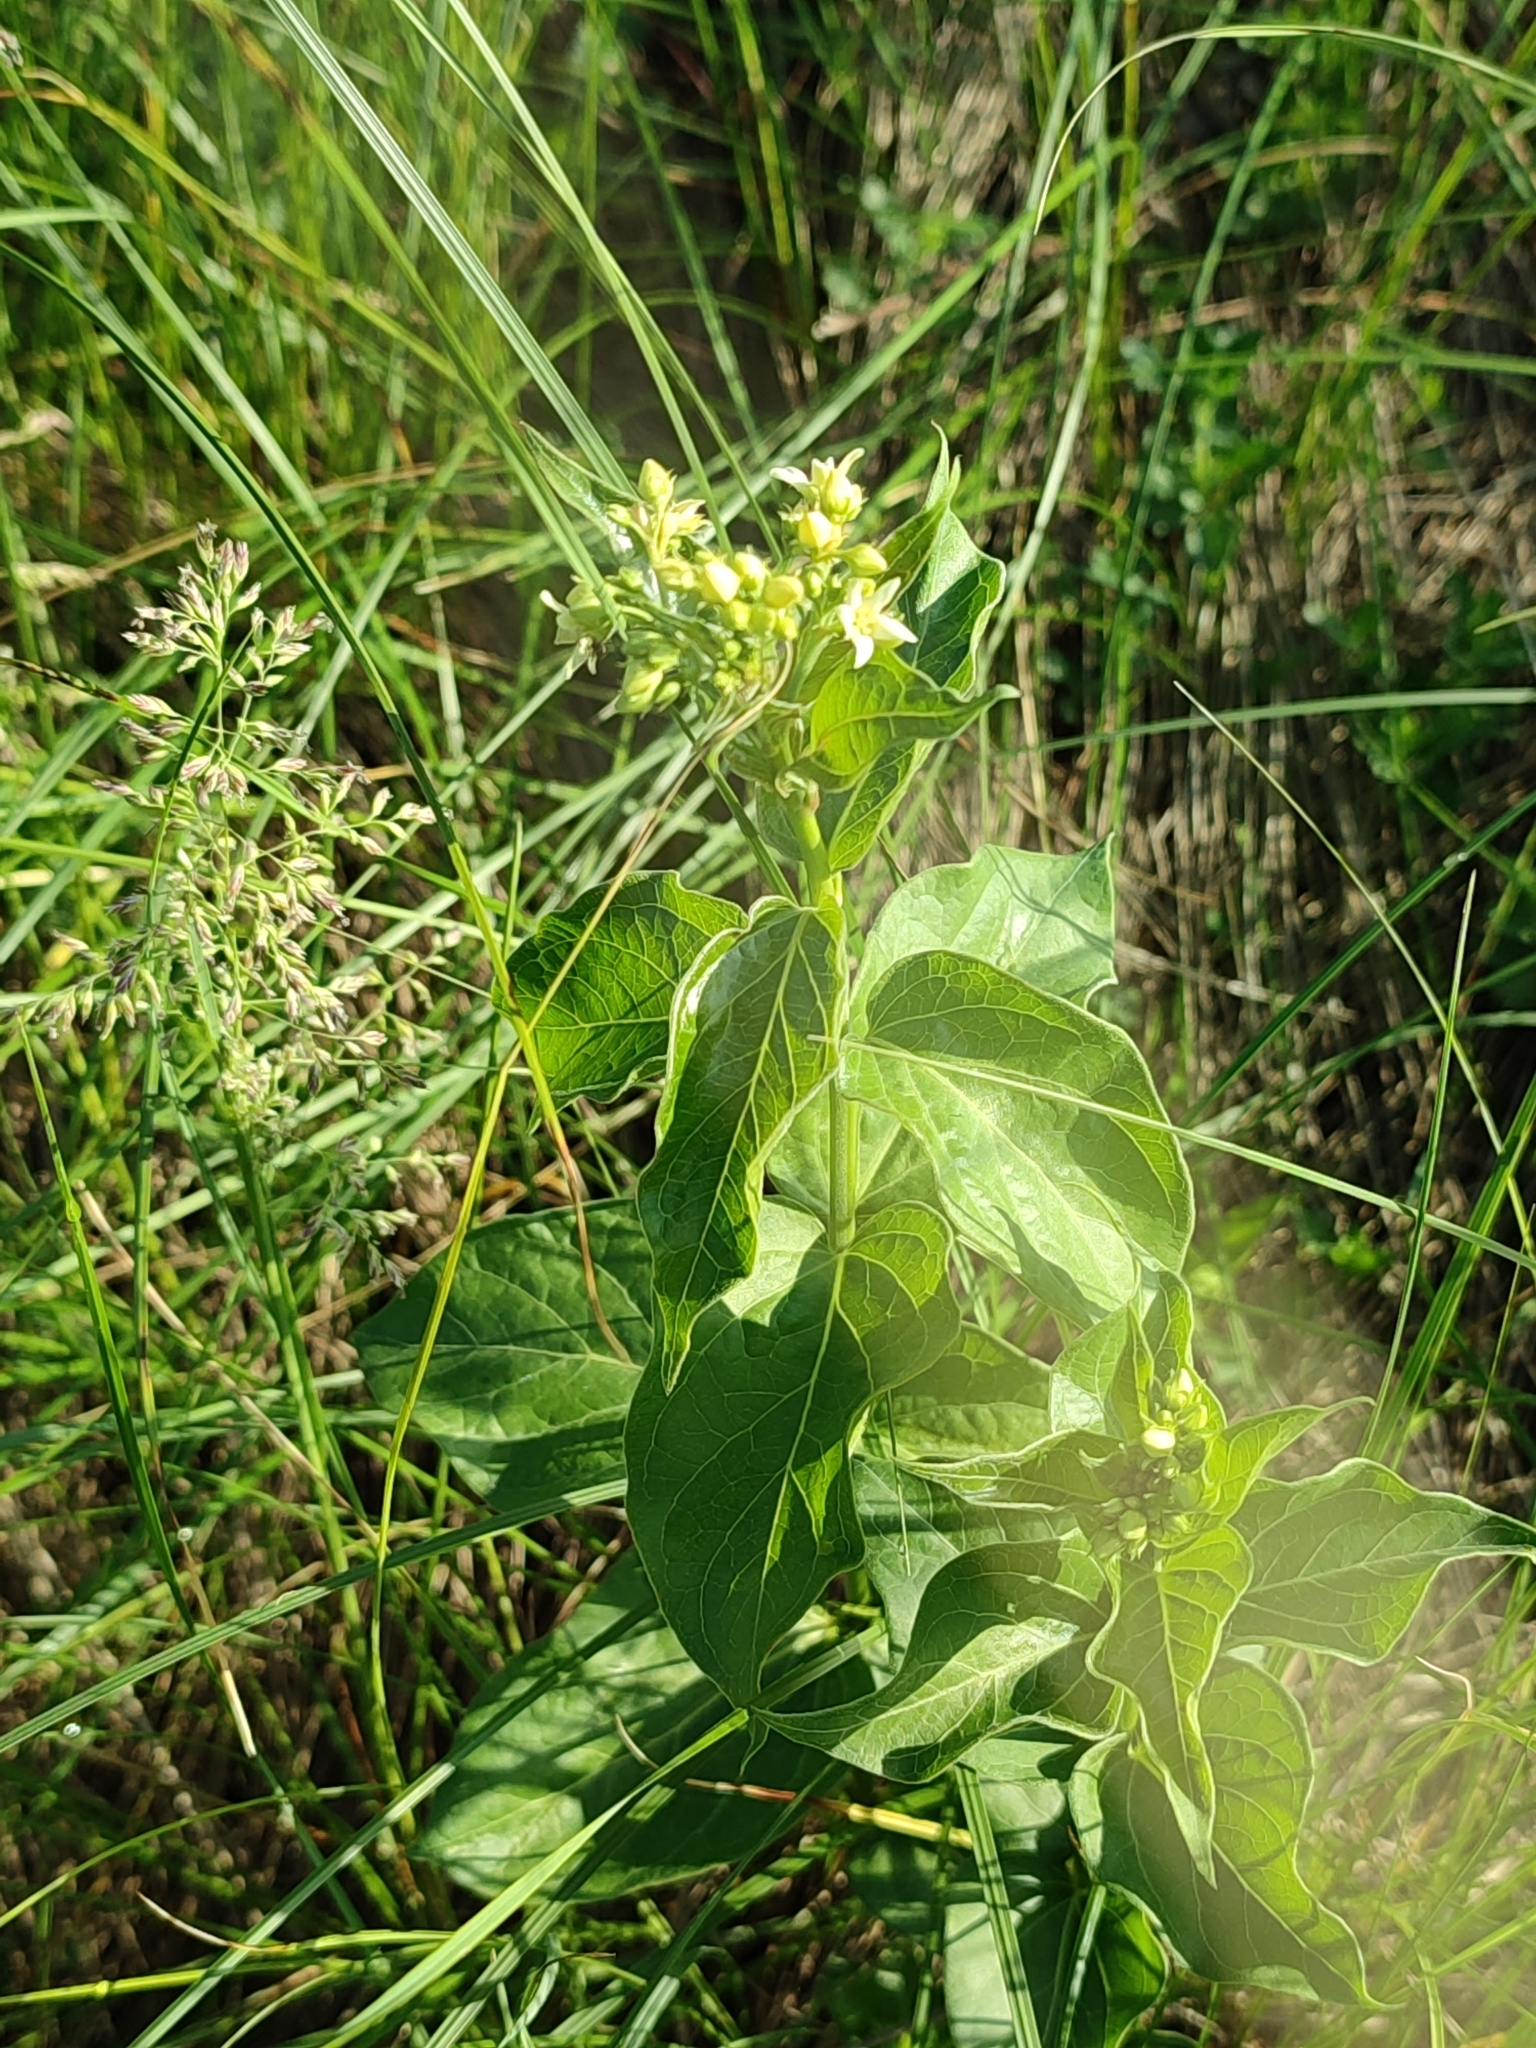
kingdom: Plantae
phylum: Tracheophyta
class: Magnoliopsida
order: Gentianales
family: Apocynaceae
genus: Vincetoxicum
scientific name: Vincetoxicum hirundinaria
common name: White swallowwort
